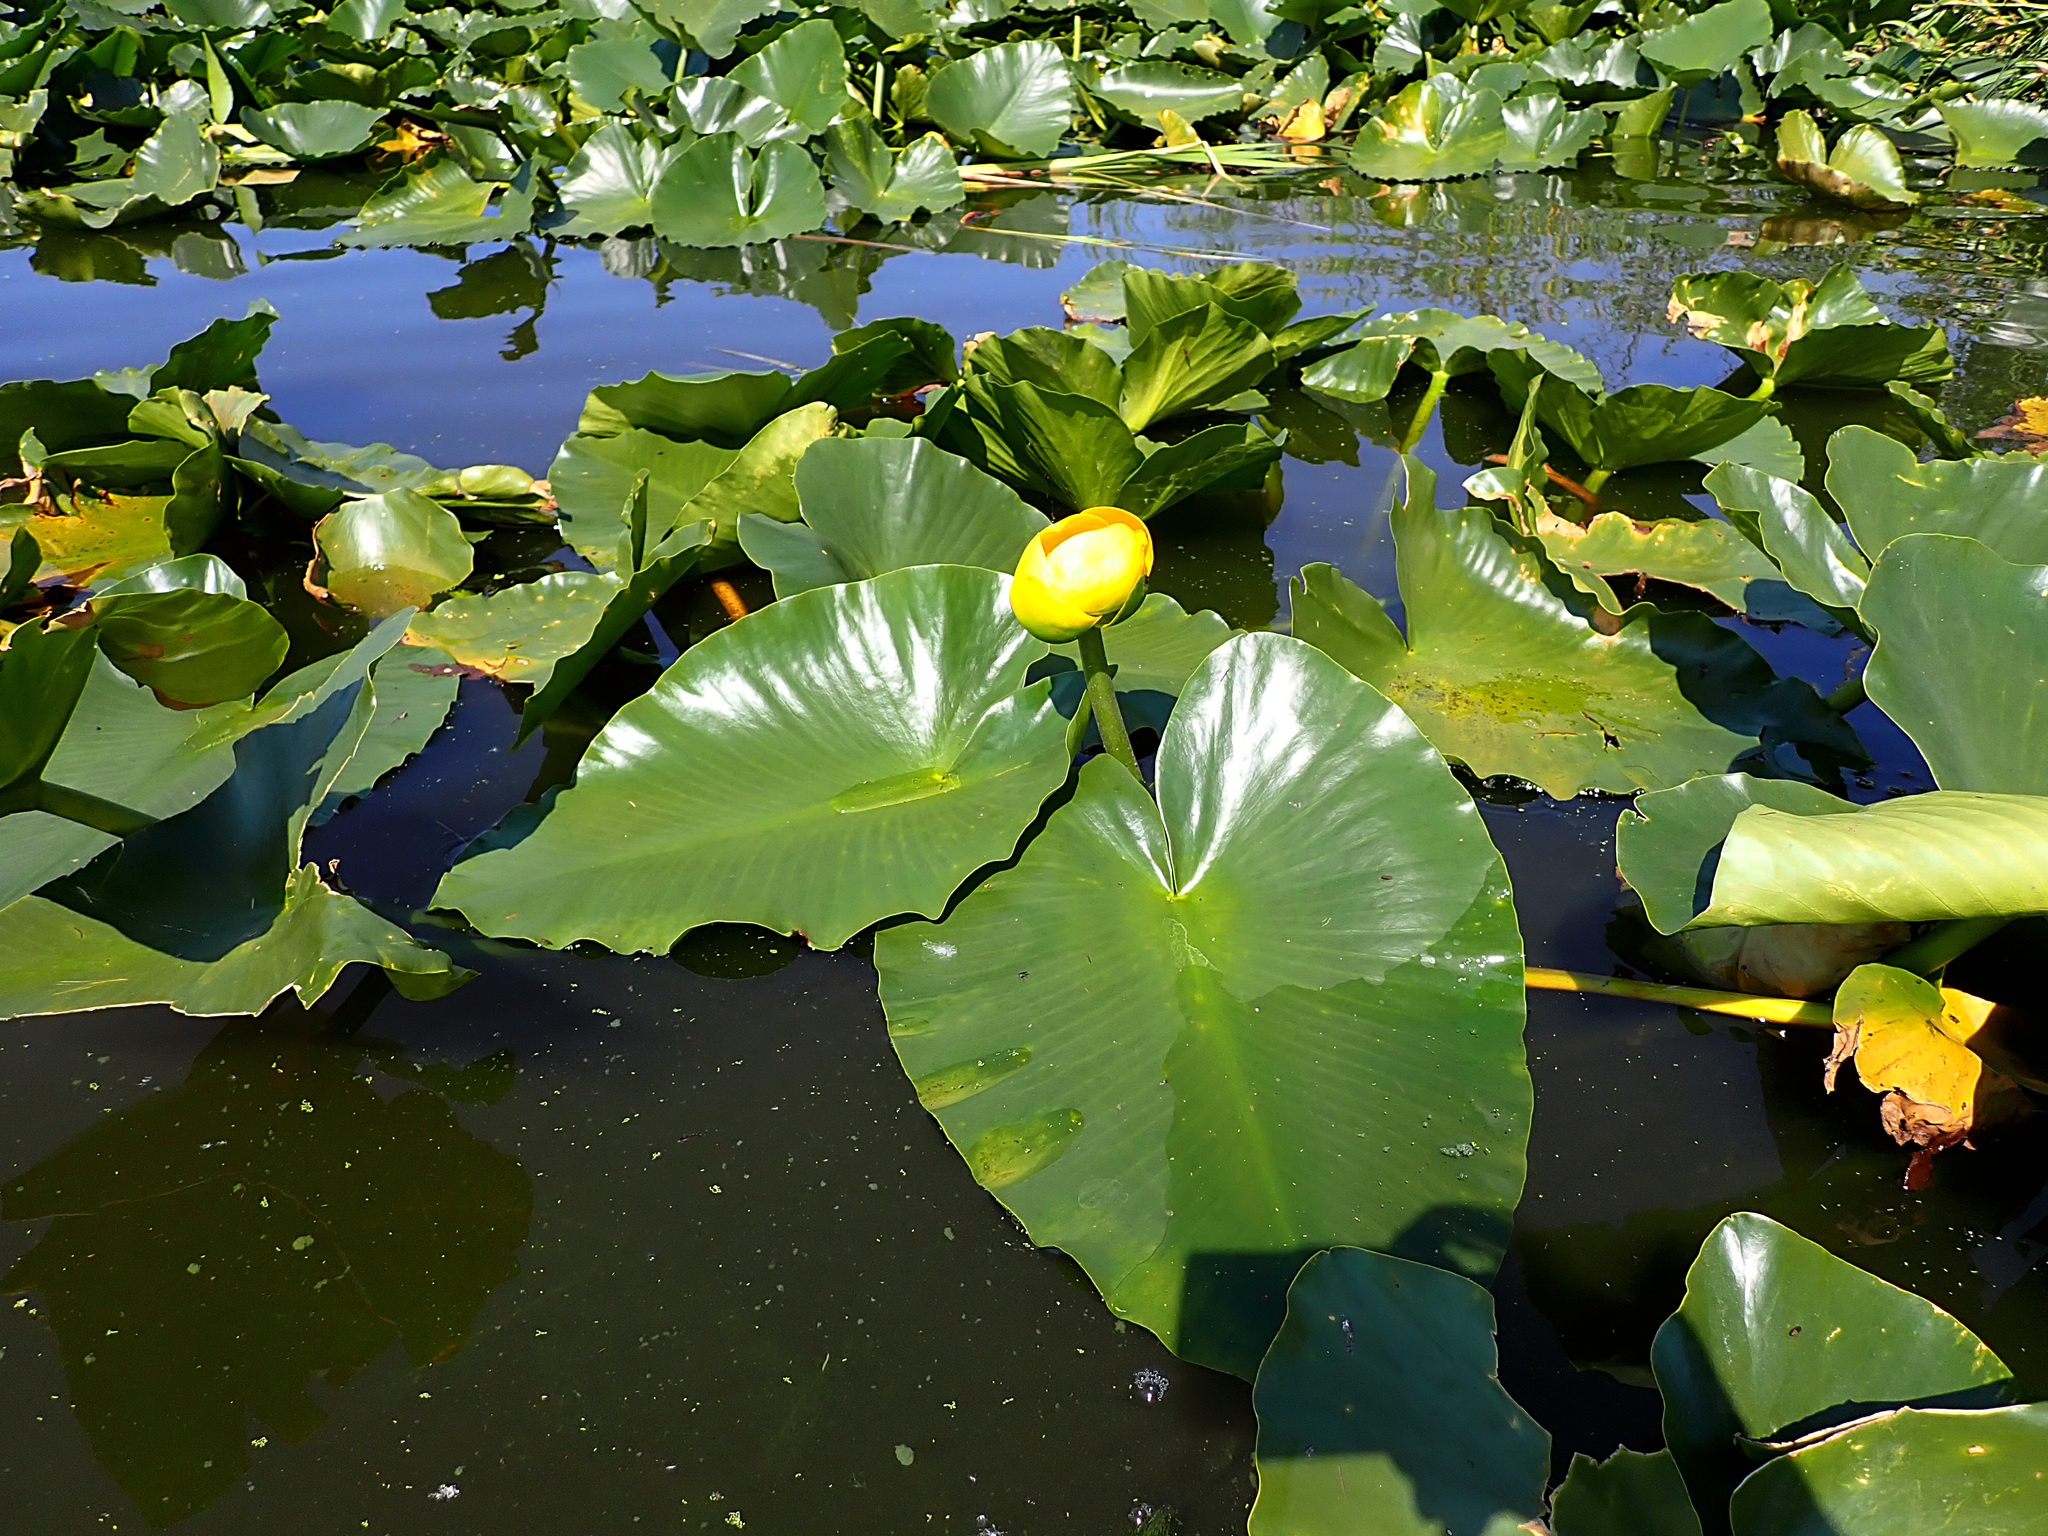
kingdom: Plantae
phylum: Tracheophyta
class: Magnoliopsida
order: Nymphaeales
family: Nymphaeaceae
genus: Nuphar
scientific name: Nuphar polysepala
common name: Rocky mountain cow-lily
